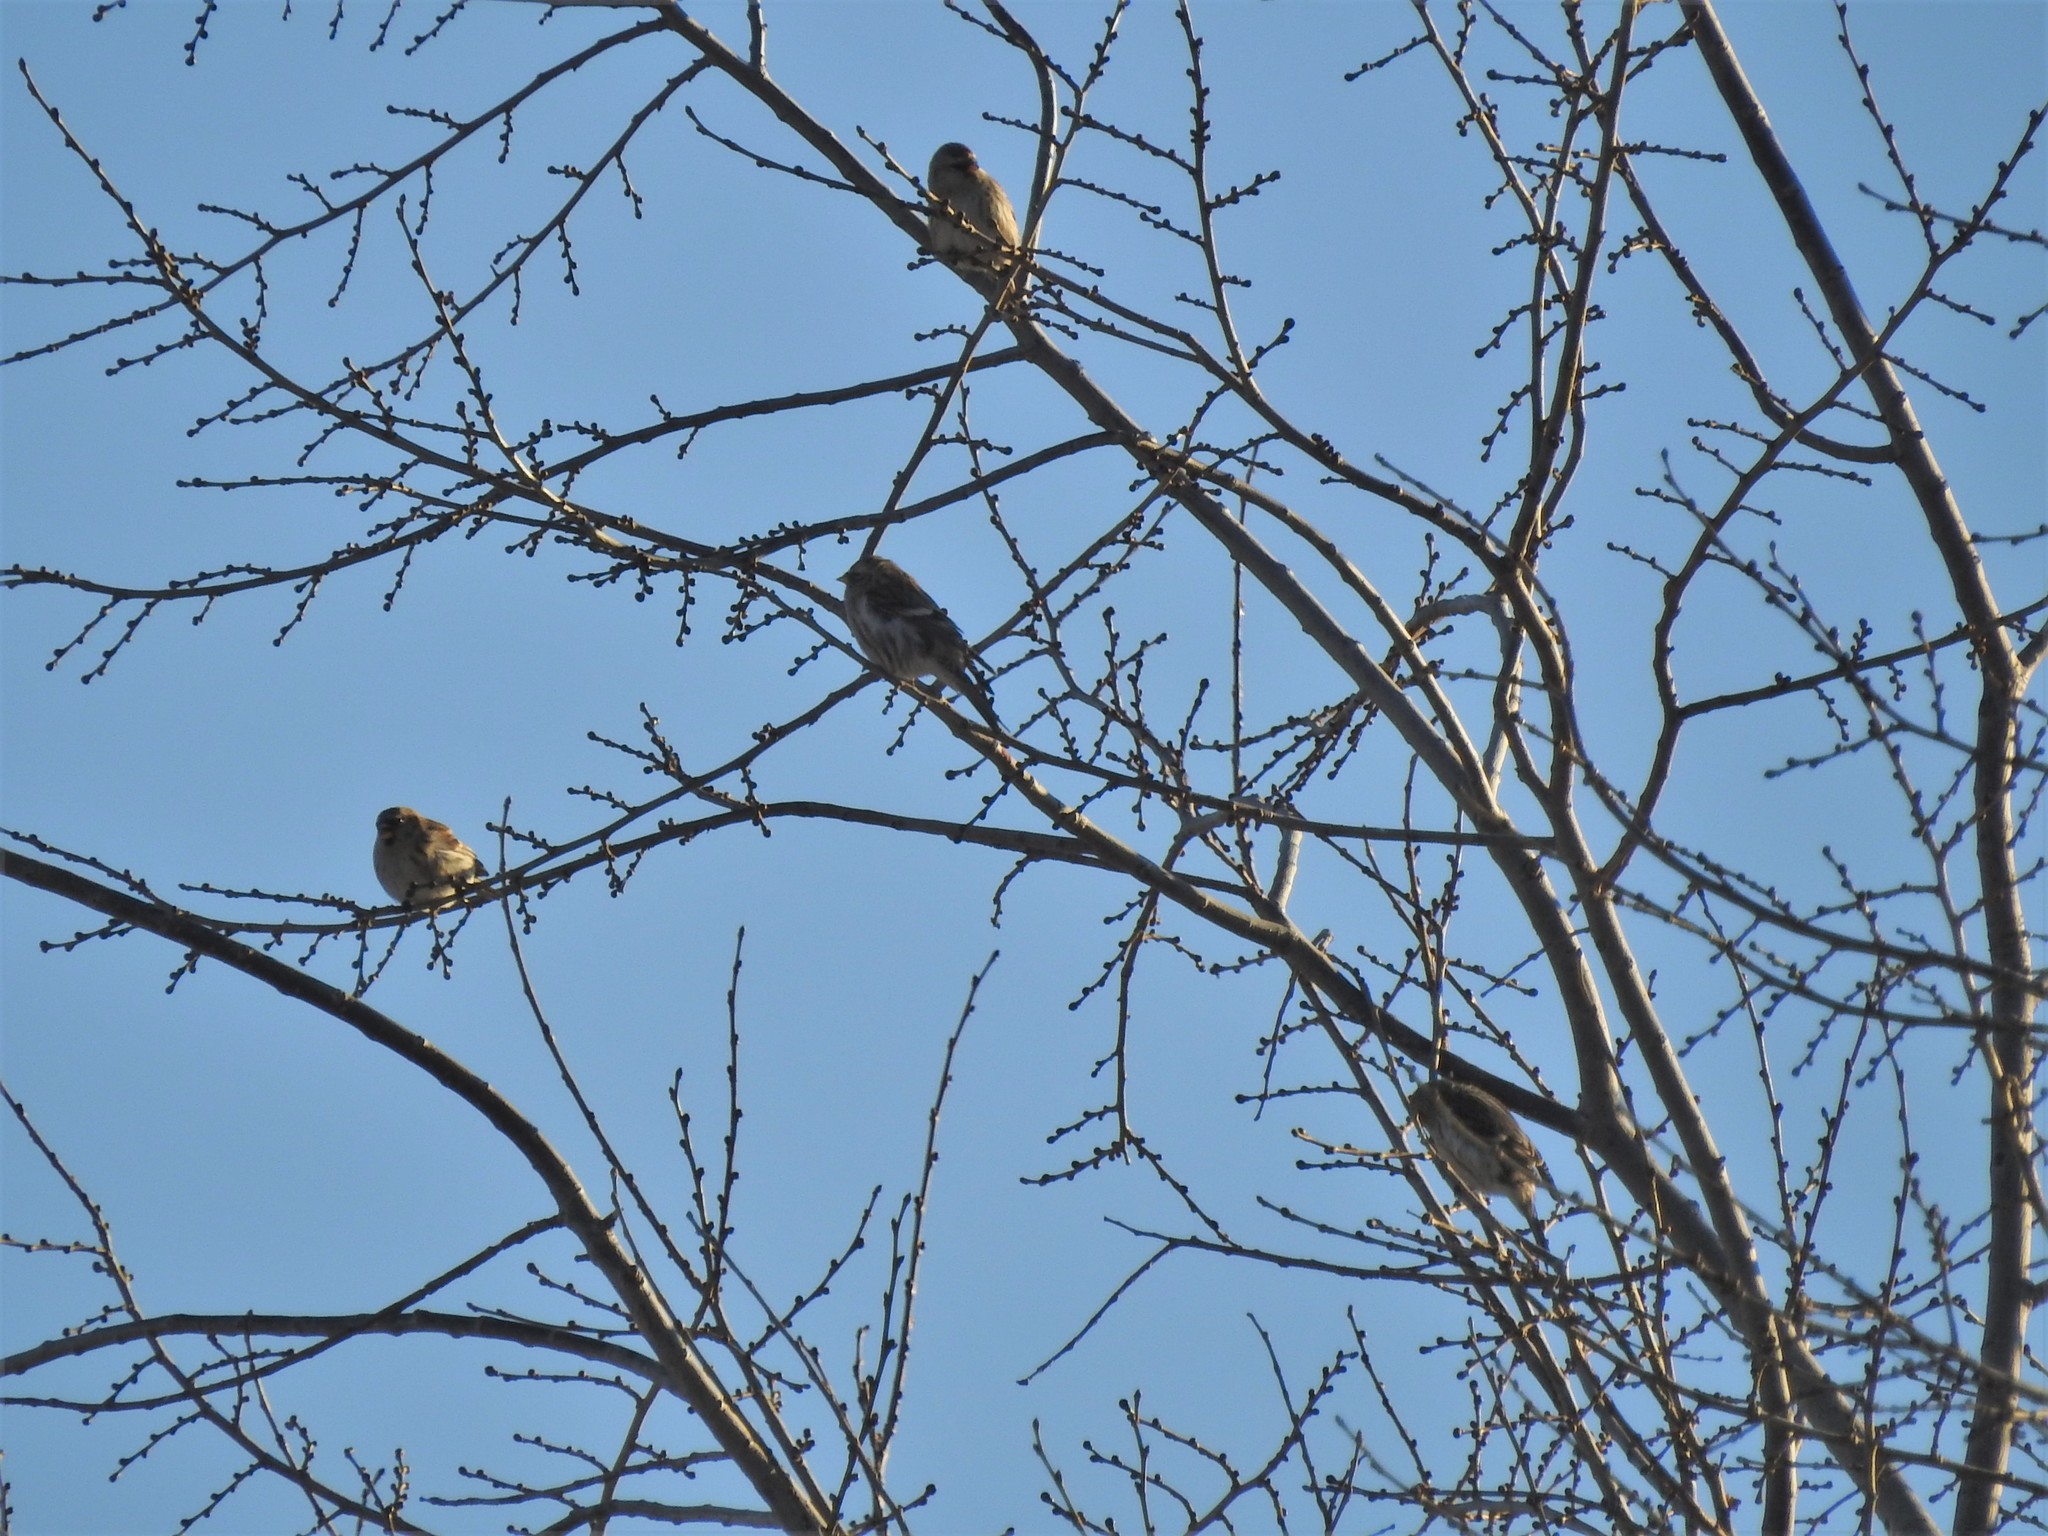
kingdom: Animalia
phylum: Chordata
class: Aves
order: Passeriformes
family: Fringillidae
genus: Acanthis
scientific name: Acanthis flammea
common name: Common redpoll
